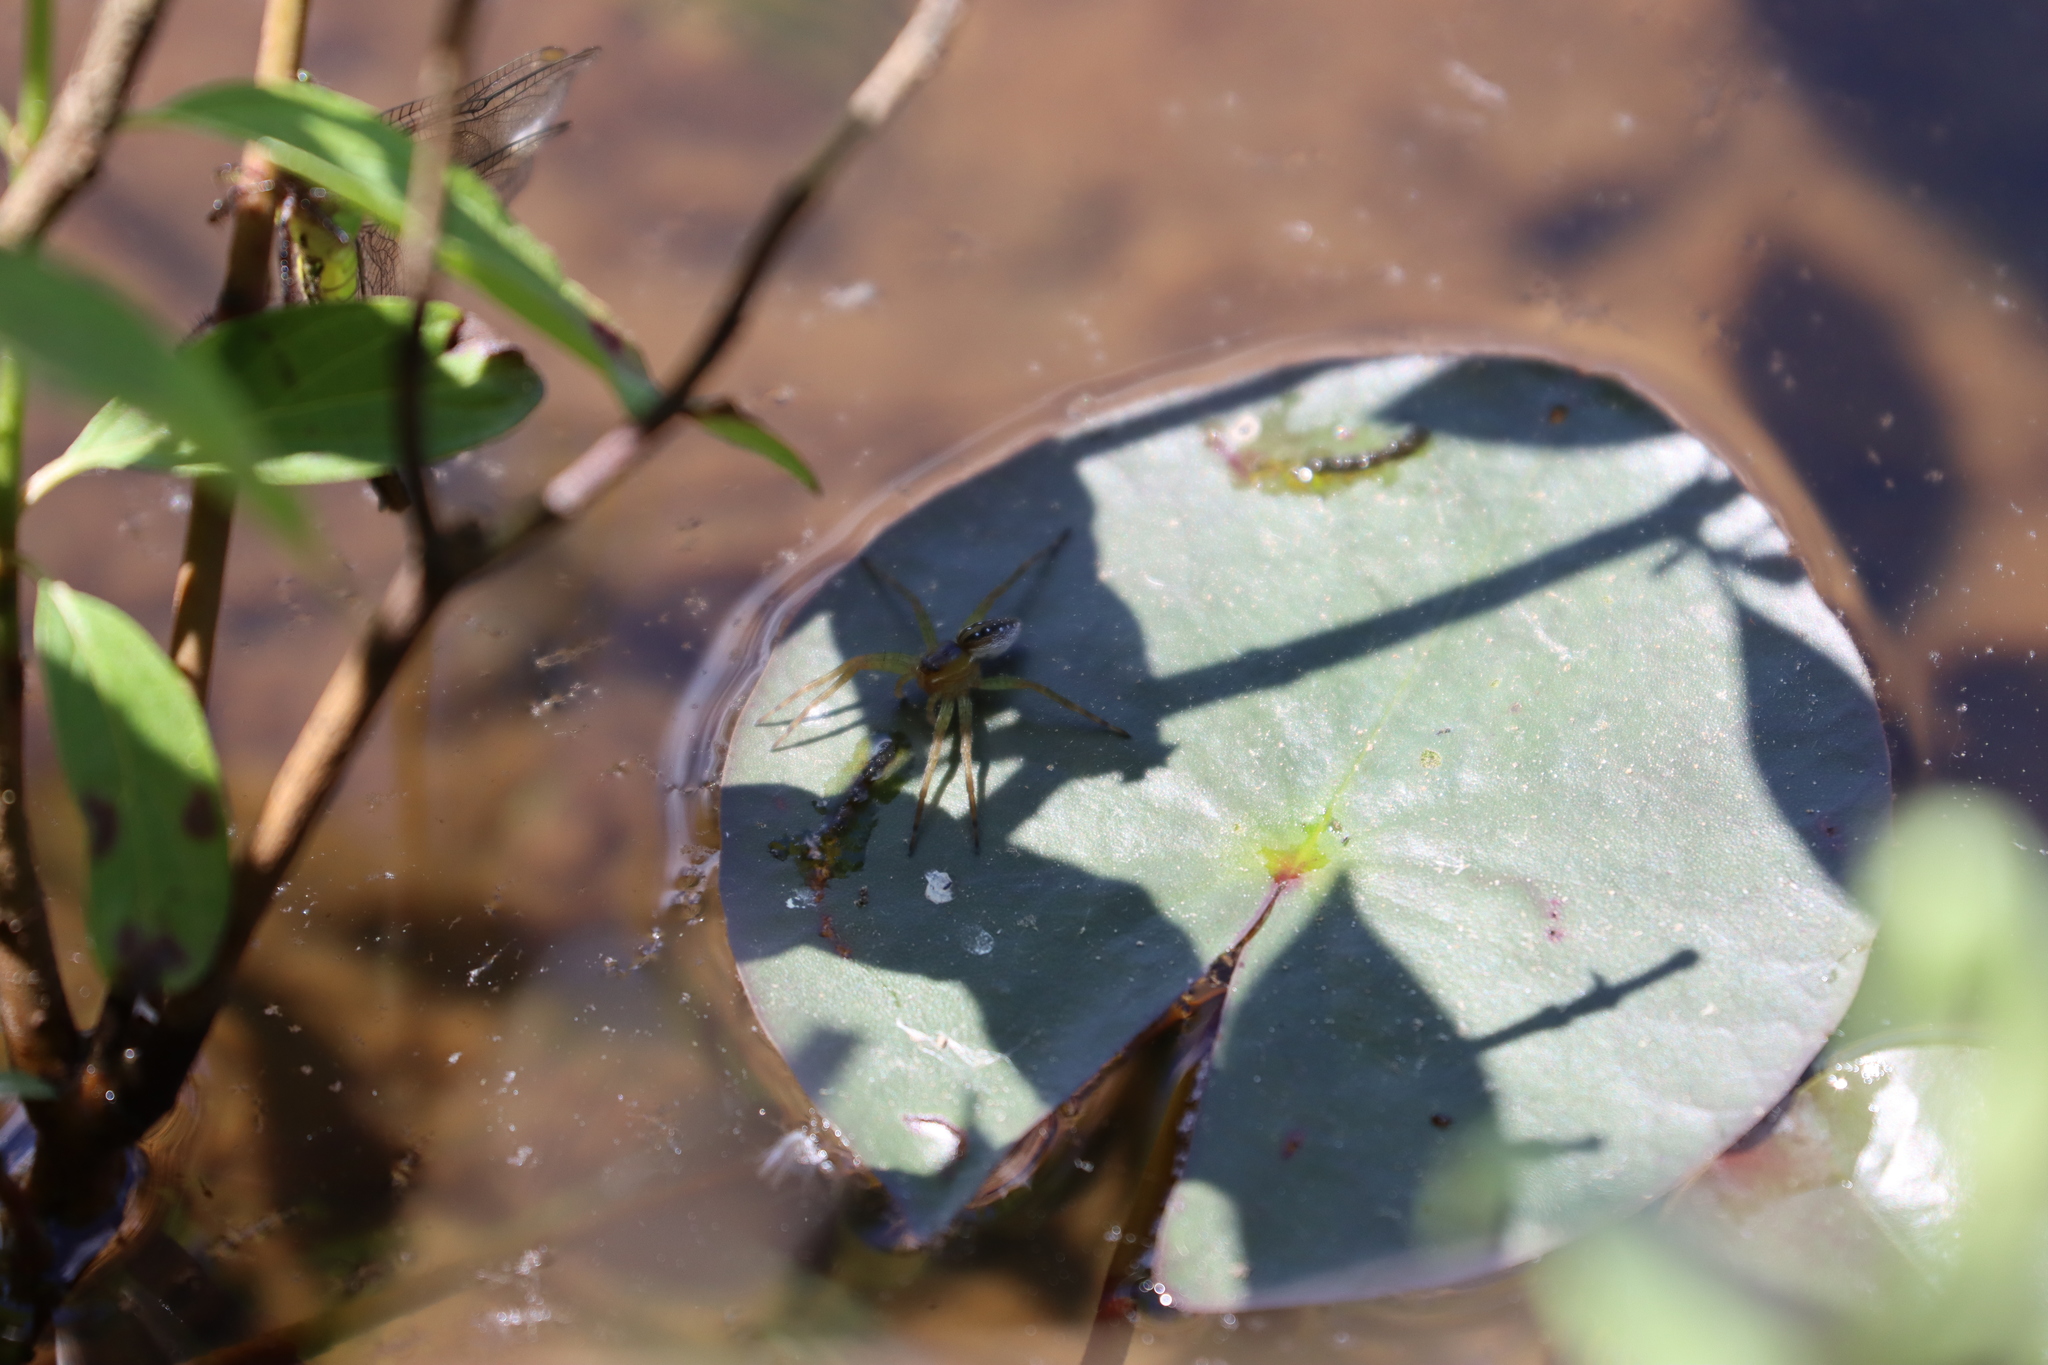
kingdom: Animalia
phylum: Arthropoda
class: Arachnida
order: Araneae
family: Pisauridae
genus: Dolomedes
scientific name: Dolomedes triton
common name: Six-spotted fishing spider
